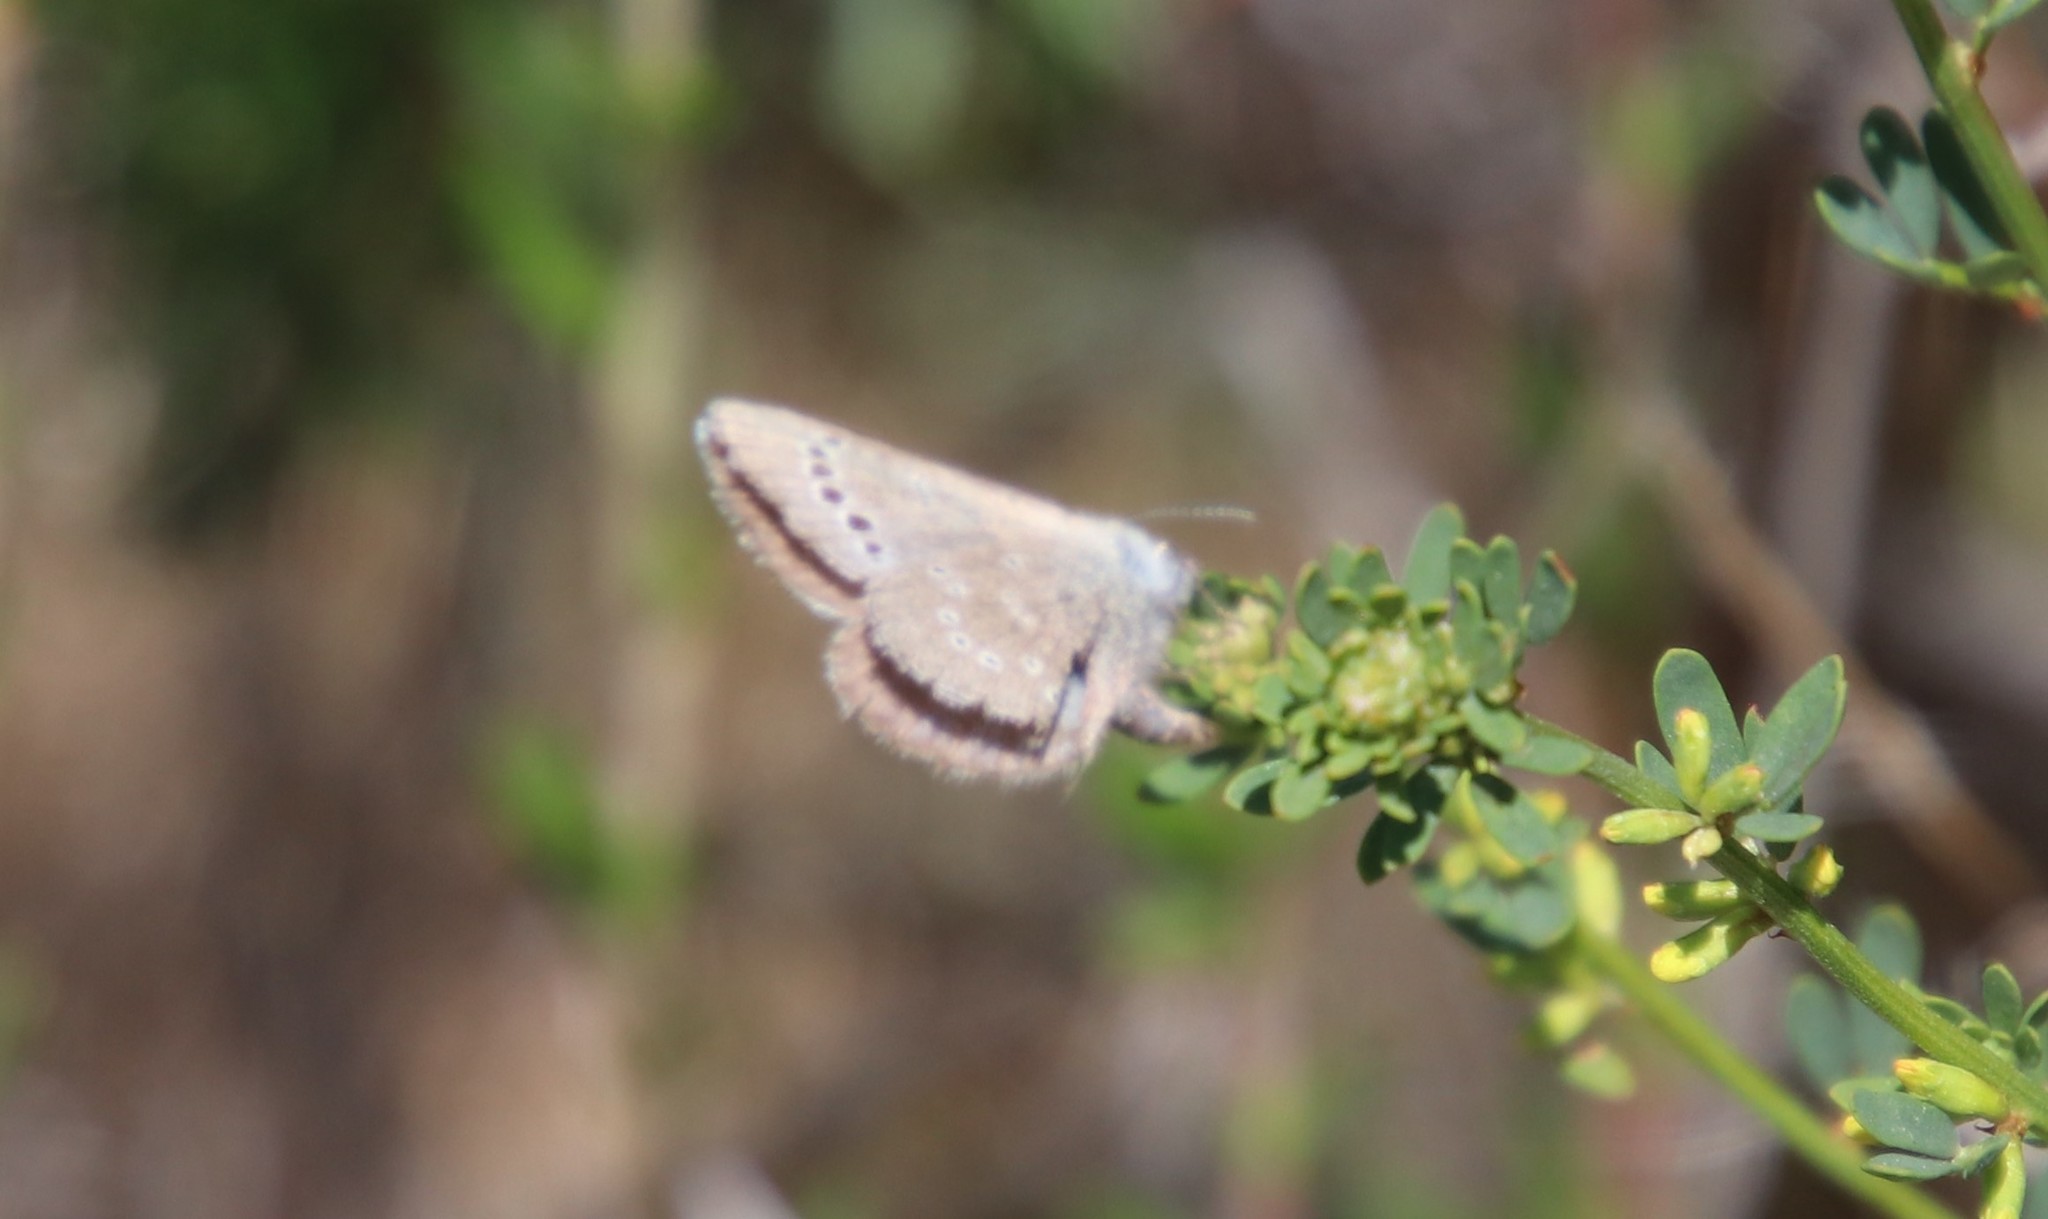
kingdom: Animalia
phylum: Arthropoda
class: Insecta
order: Lepidoptera
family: Lycaenidae
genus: Glaucopsyche
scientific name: Glaucopsyche lygdamus
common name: Silvery blue
